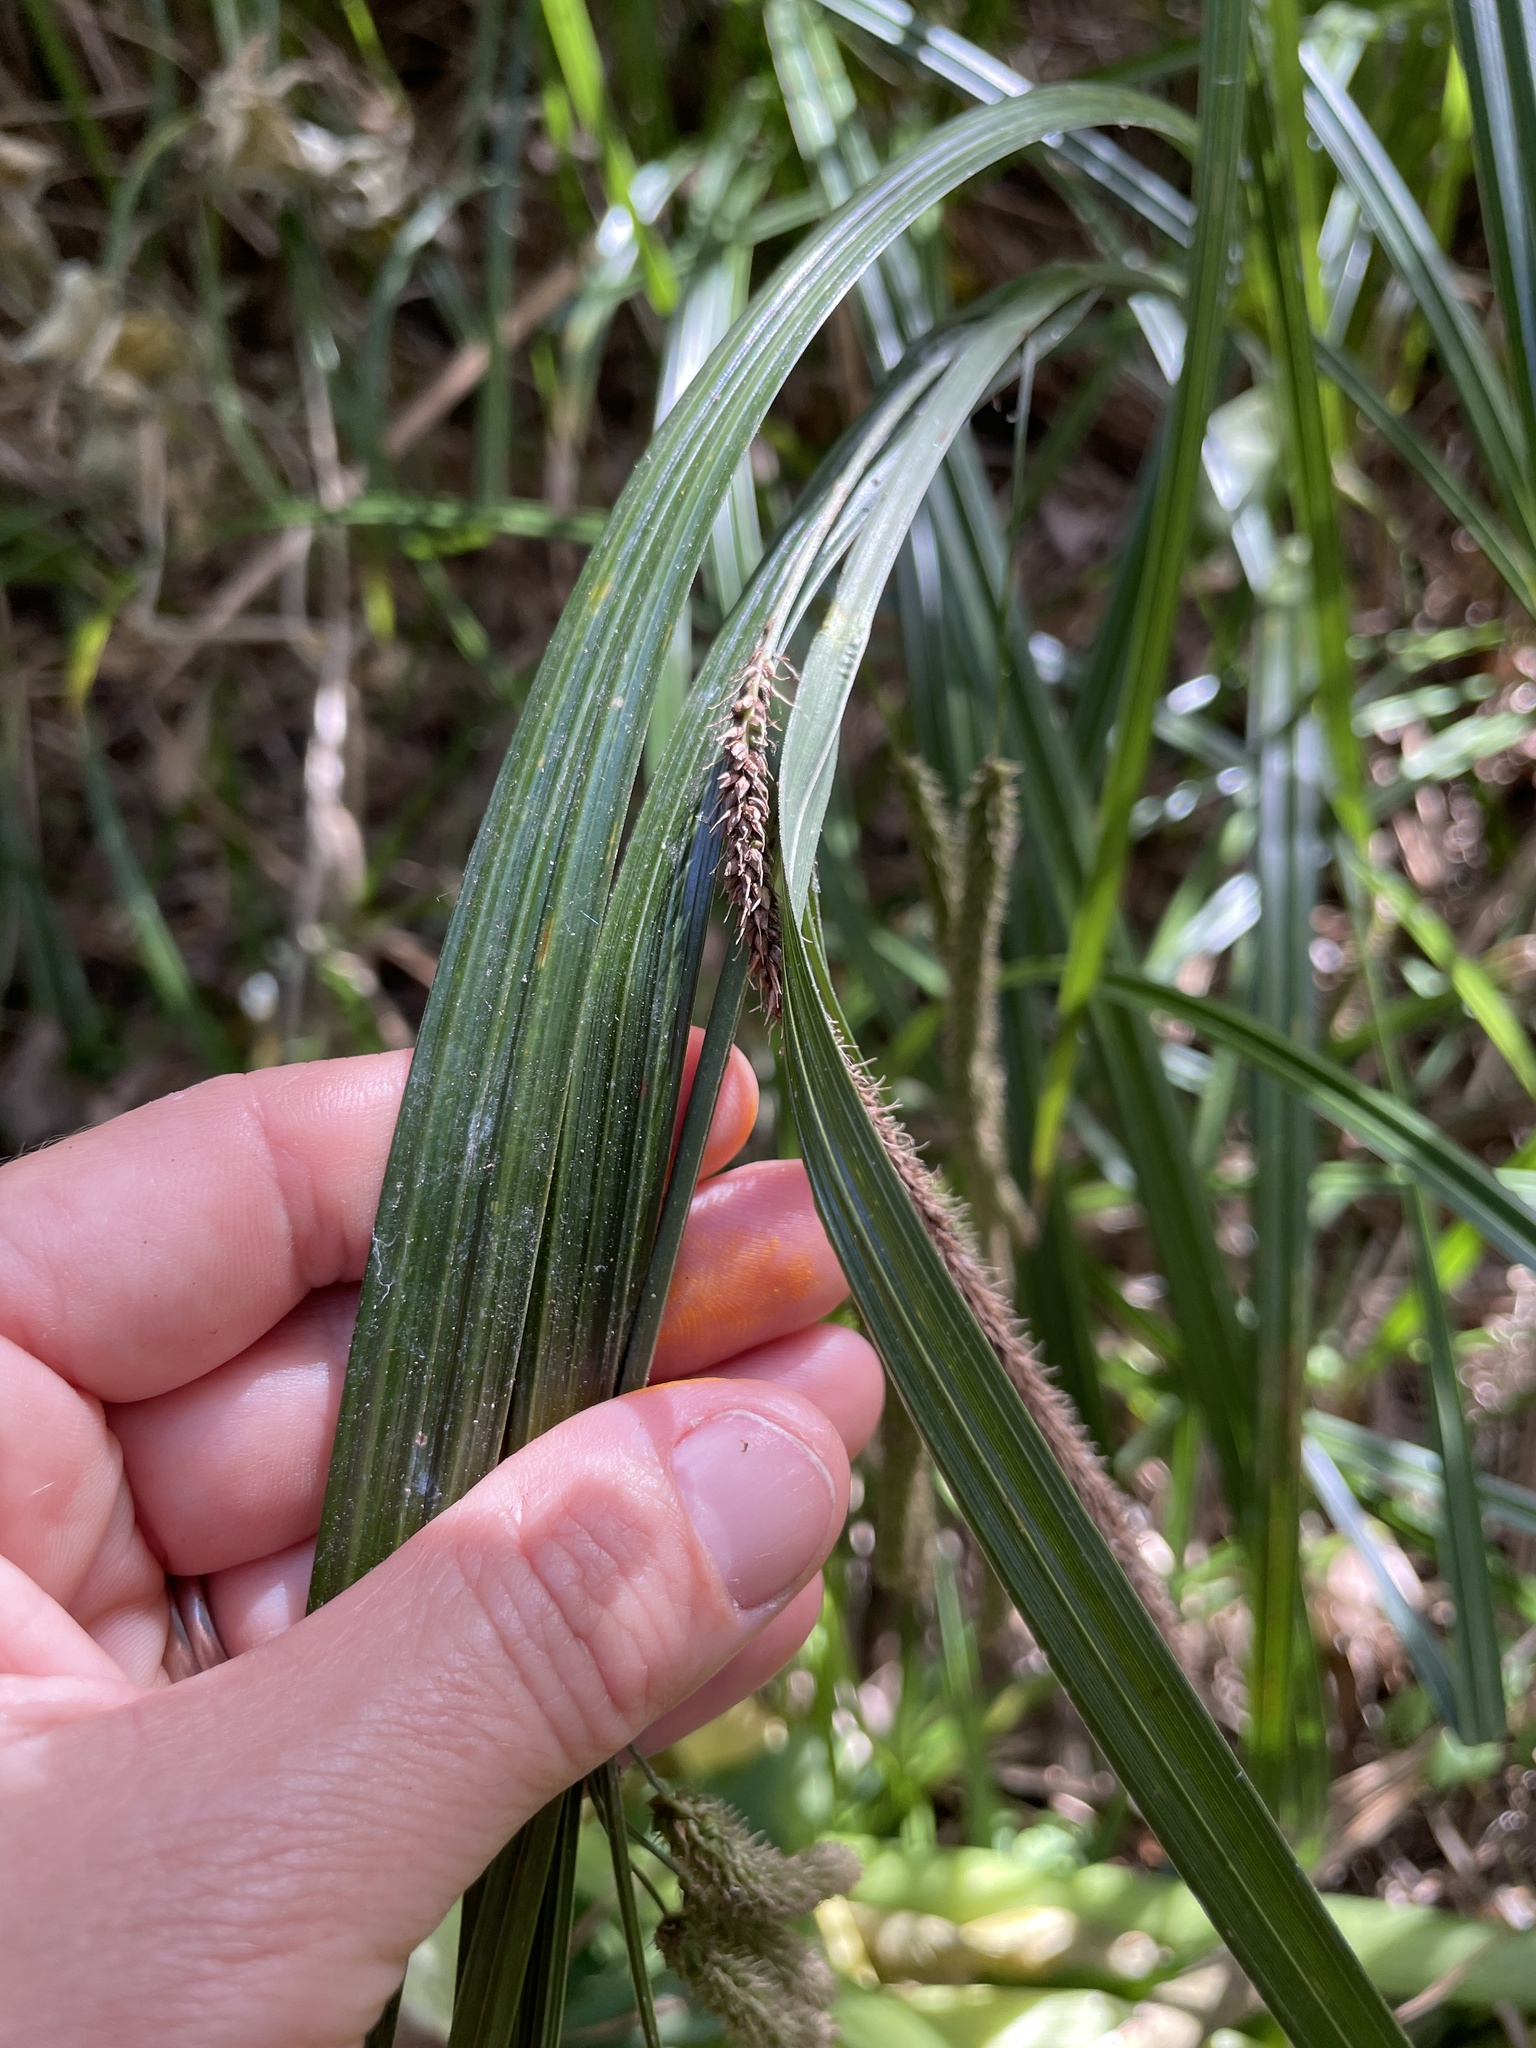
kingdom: Plantae
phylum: Tracheophyta
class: Liliopsida
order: Poales
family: Cyperaceae
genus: Carex
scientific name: Carex pendula
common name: Pendulous sedge
